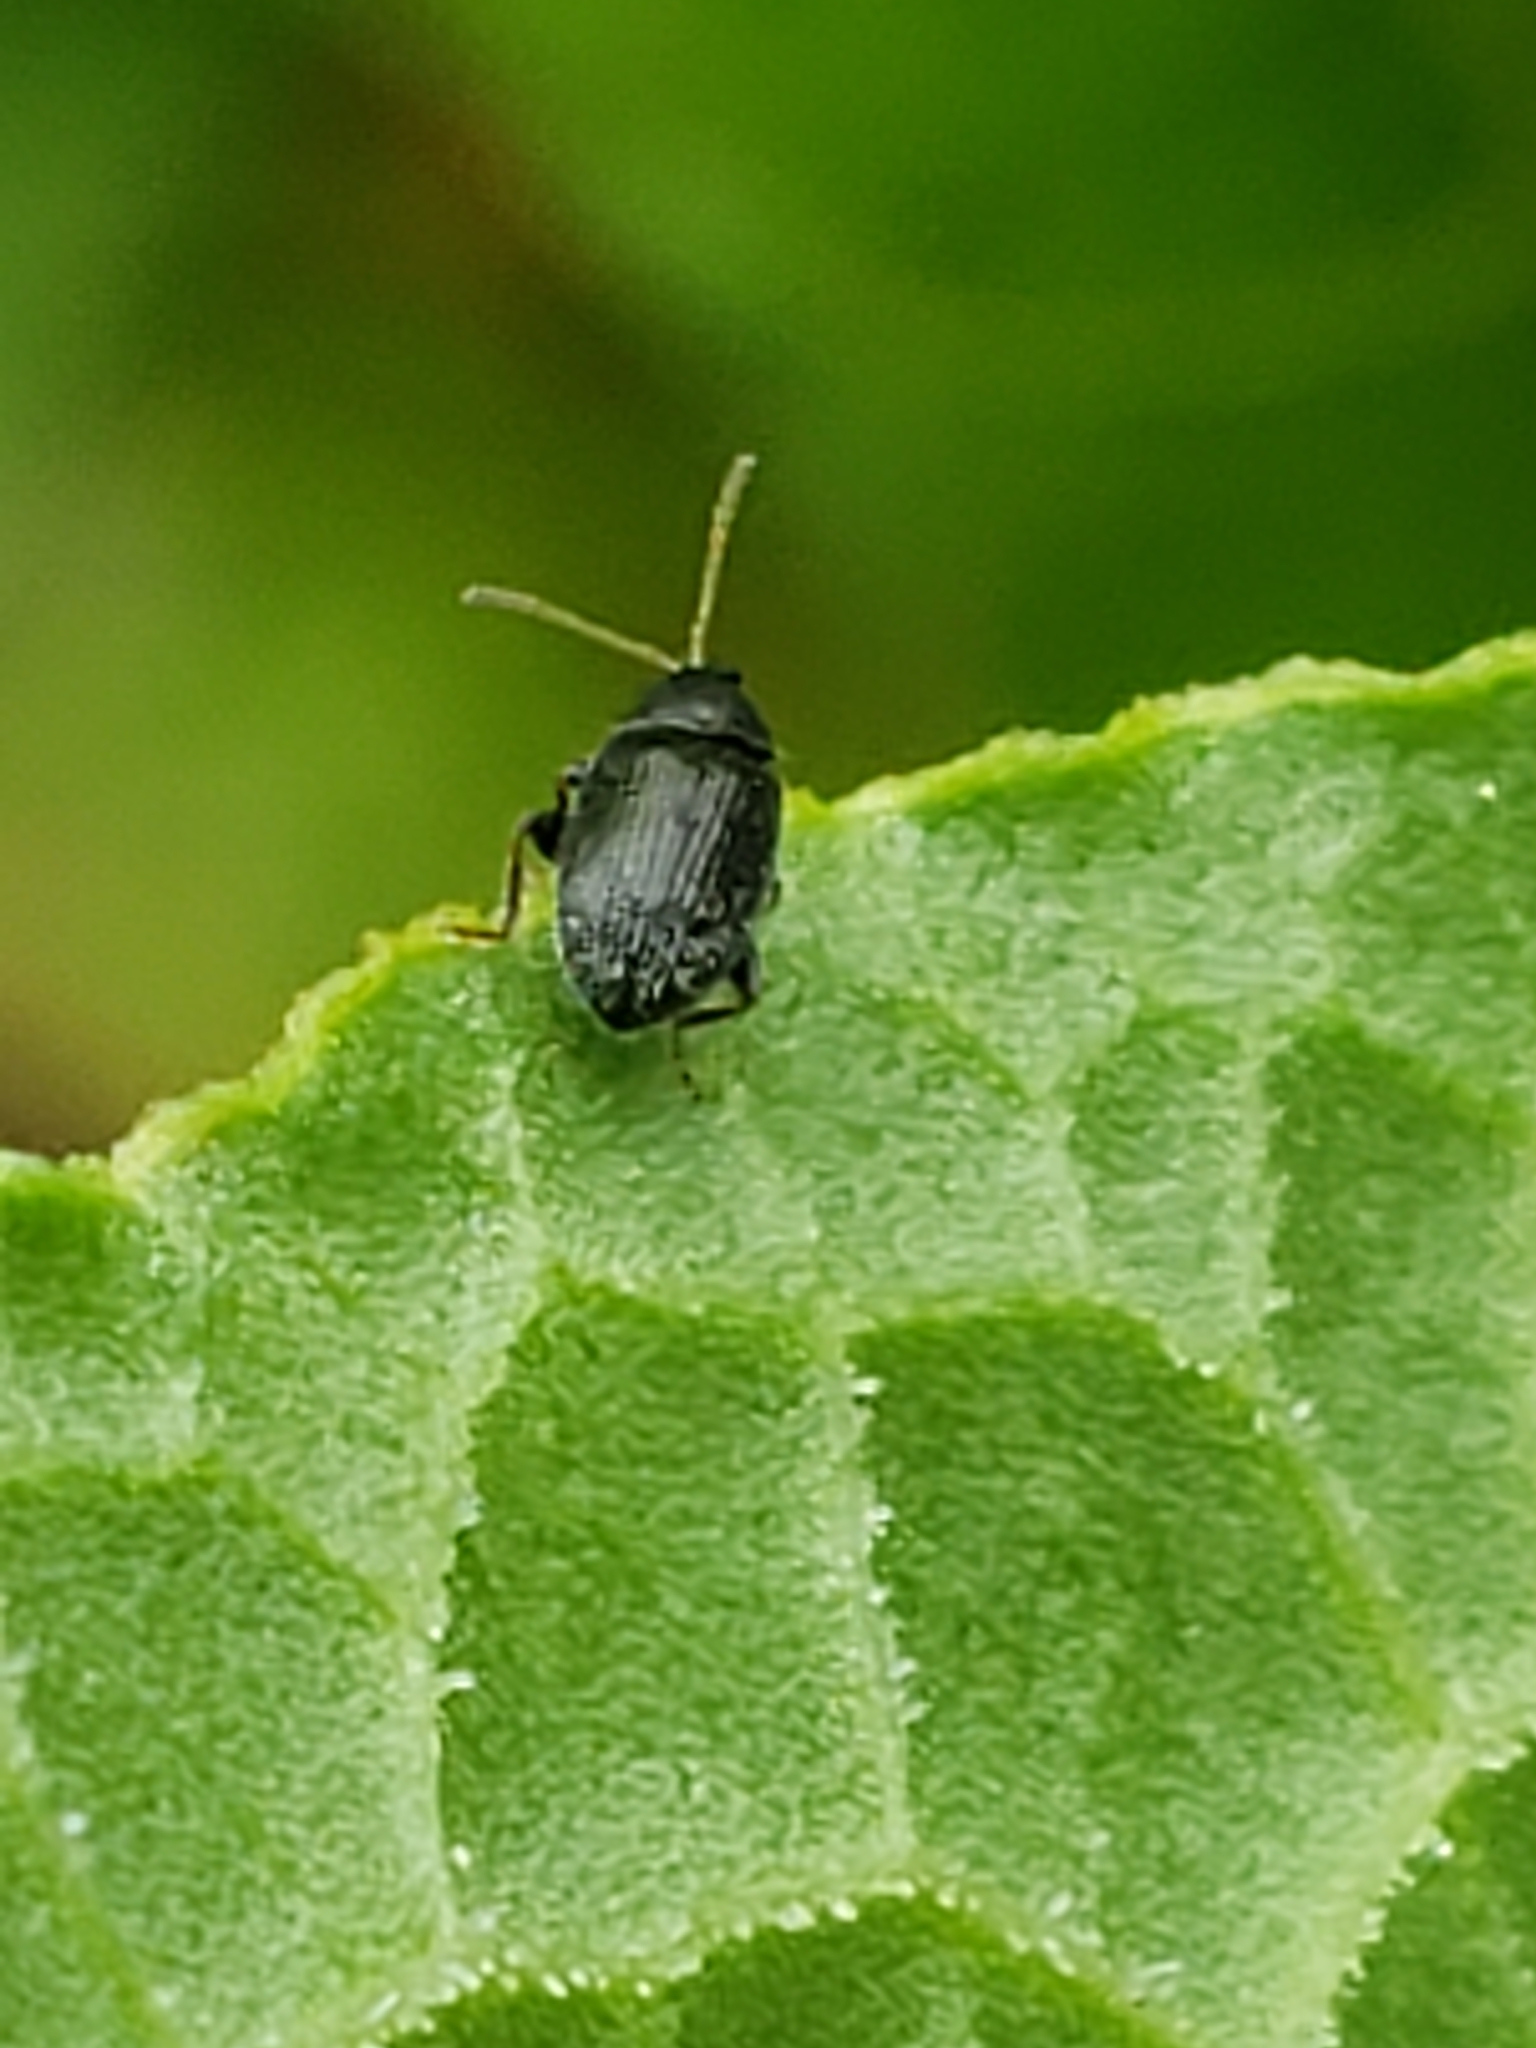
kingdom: Animalia
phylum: Arthropoda
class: Insecta
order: Coleoptera
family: Chrysomelidae
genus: Epitrix
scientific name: Epitrix fuscula
